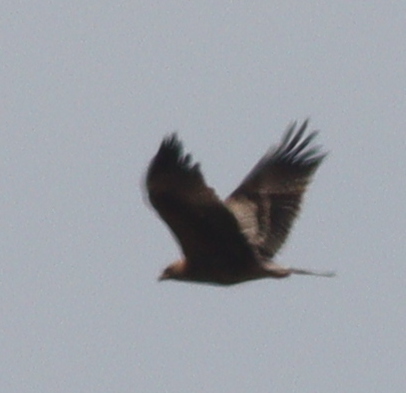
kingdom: Animalia
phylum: Chordata
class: Aves
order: Accipitriformes
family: Accipitridae
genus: Hieraaetus
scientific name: Hieraaetus pennatus
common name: Booted eagle
